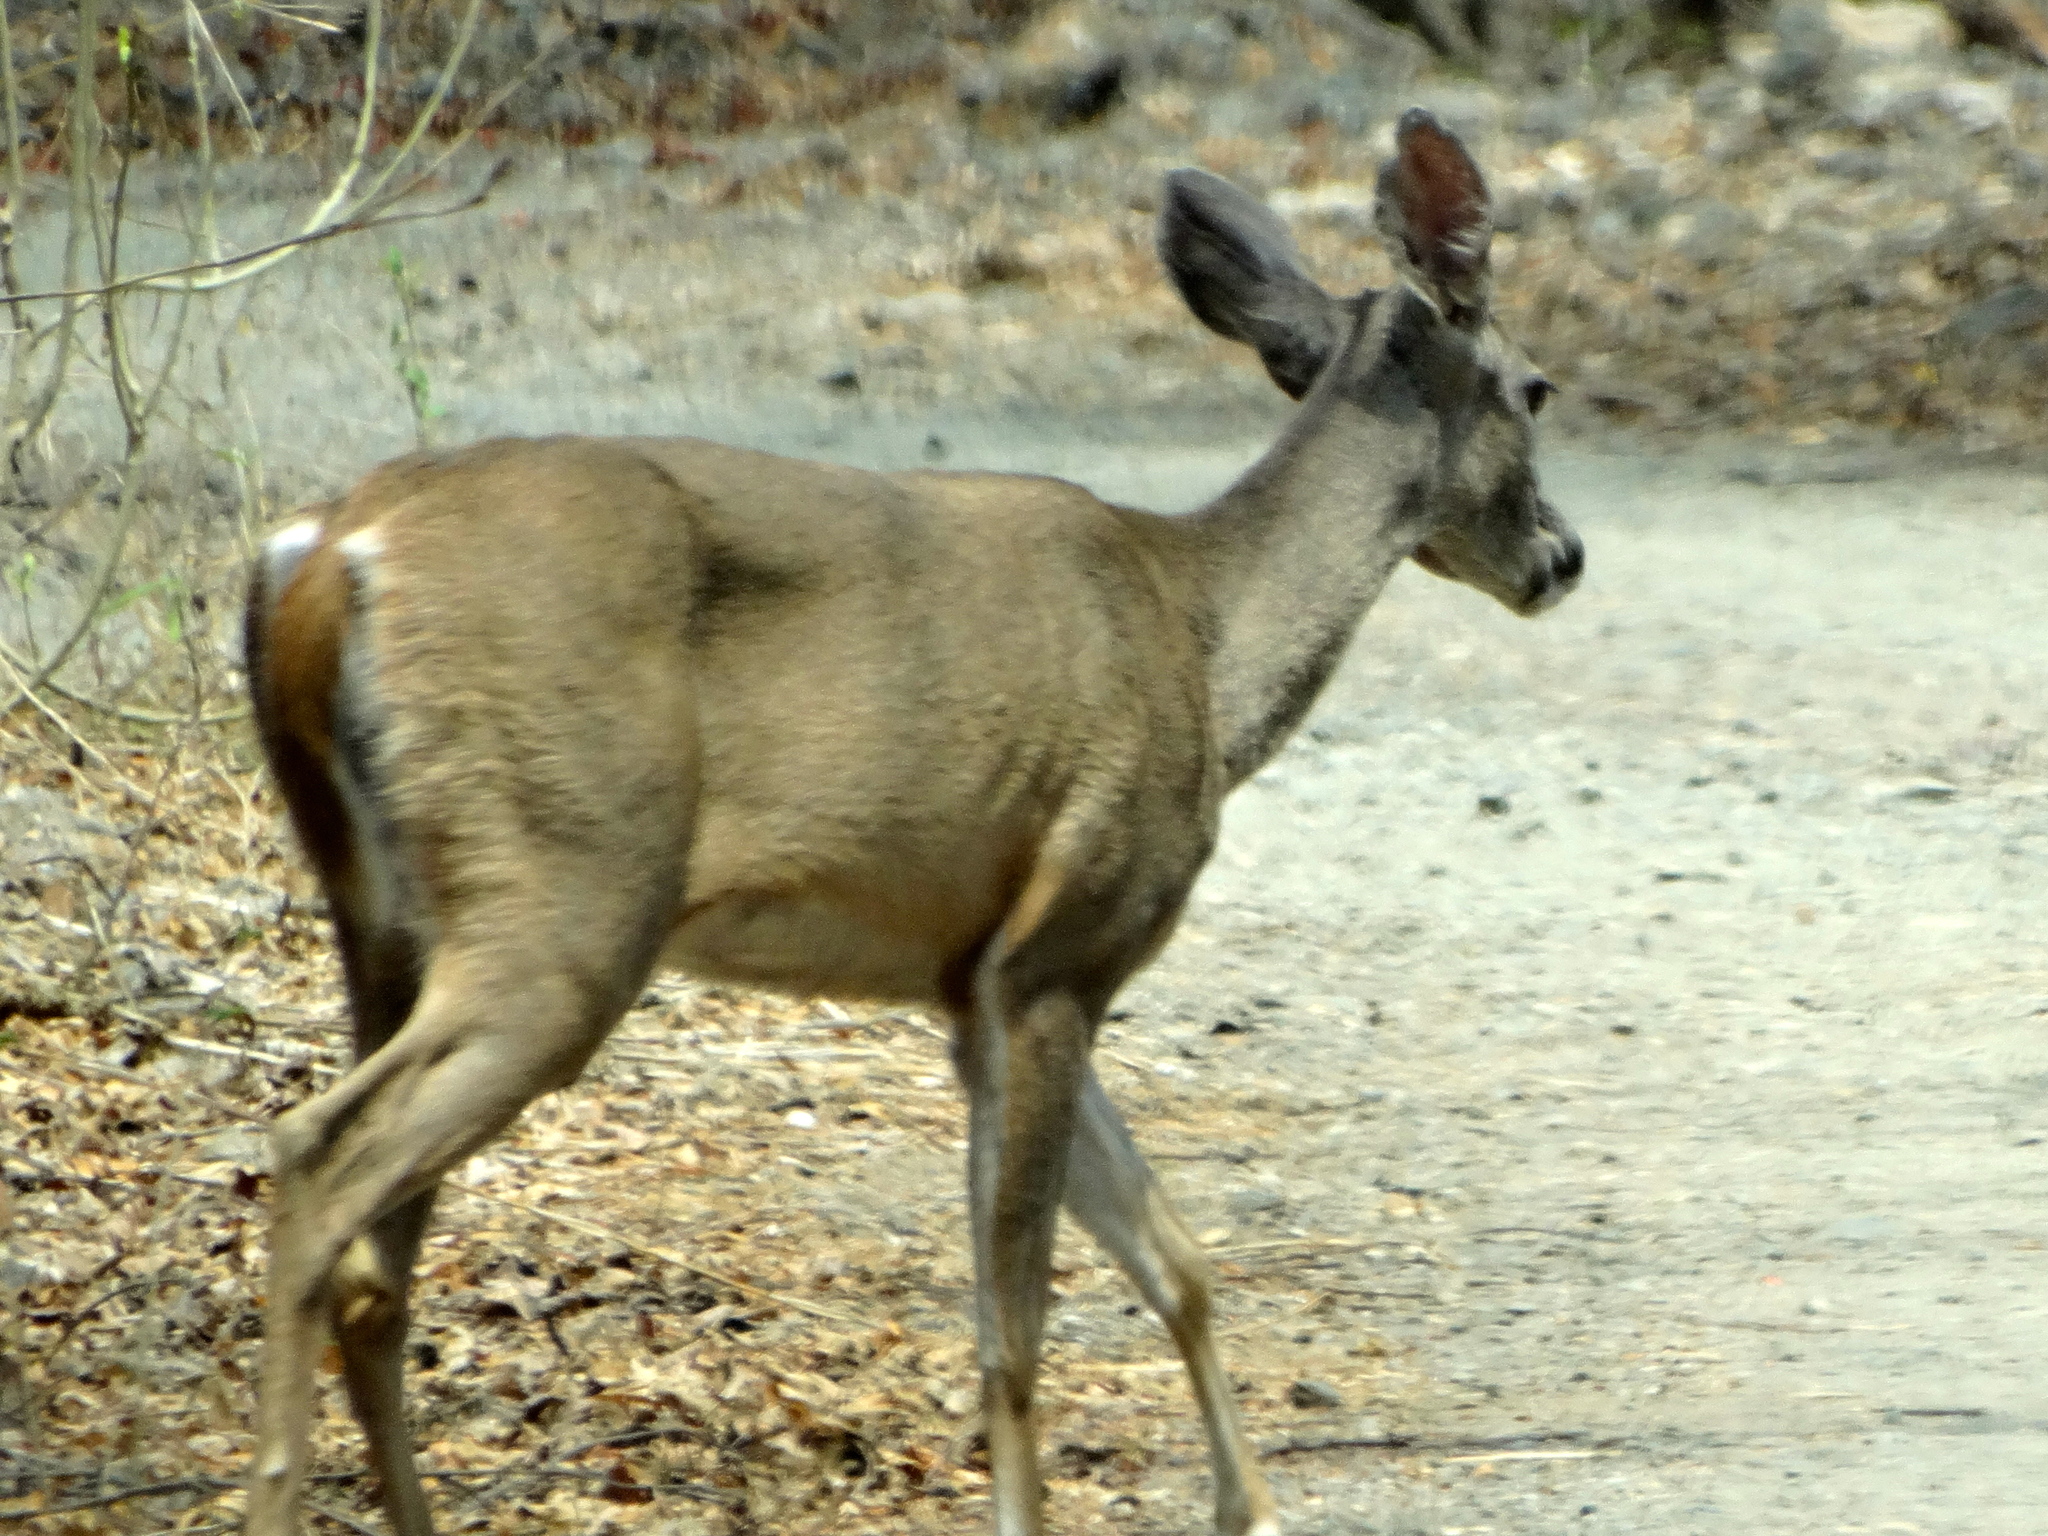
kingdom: Animalia
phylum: Chordata
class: Mammalia
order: Artiodactyla
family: Cervidae
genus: Odocoileus
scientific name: Odocoileus virginianus
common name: White-tailed deer
